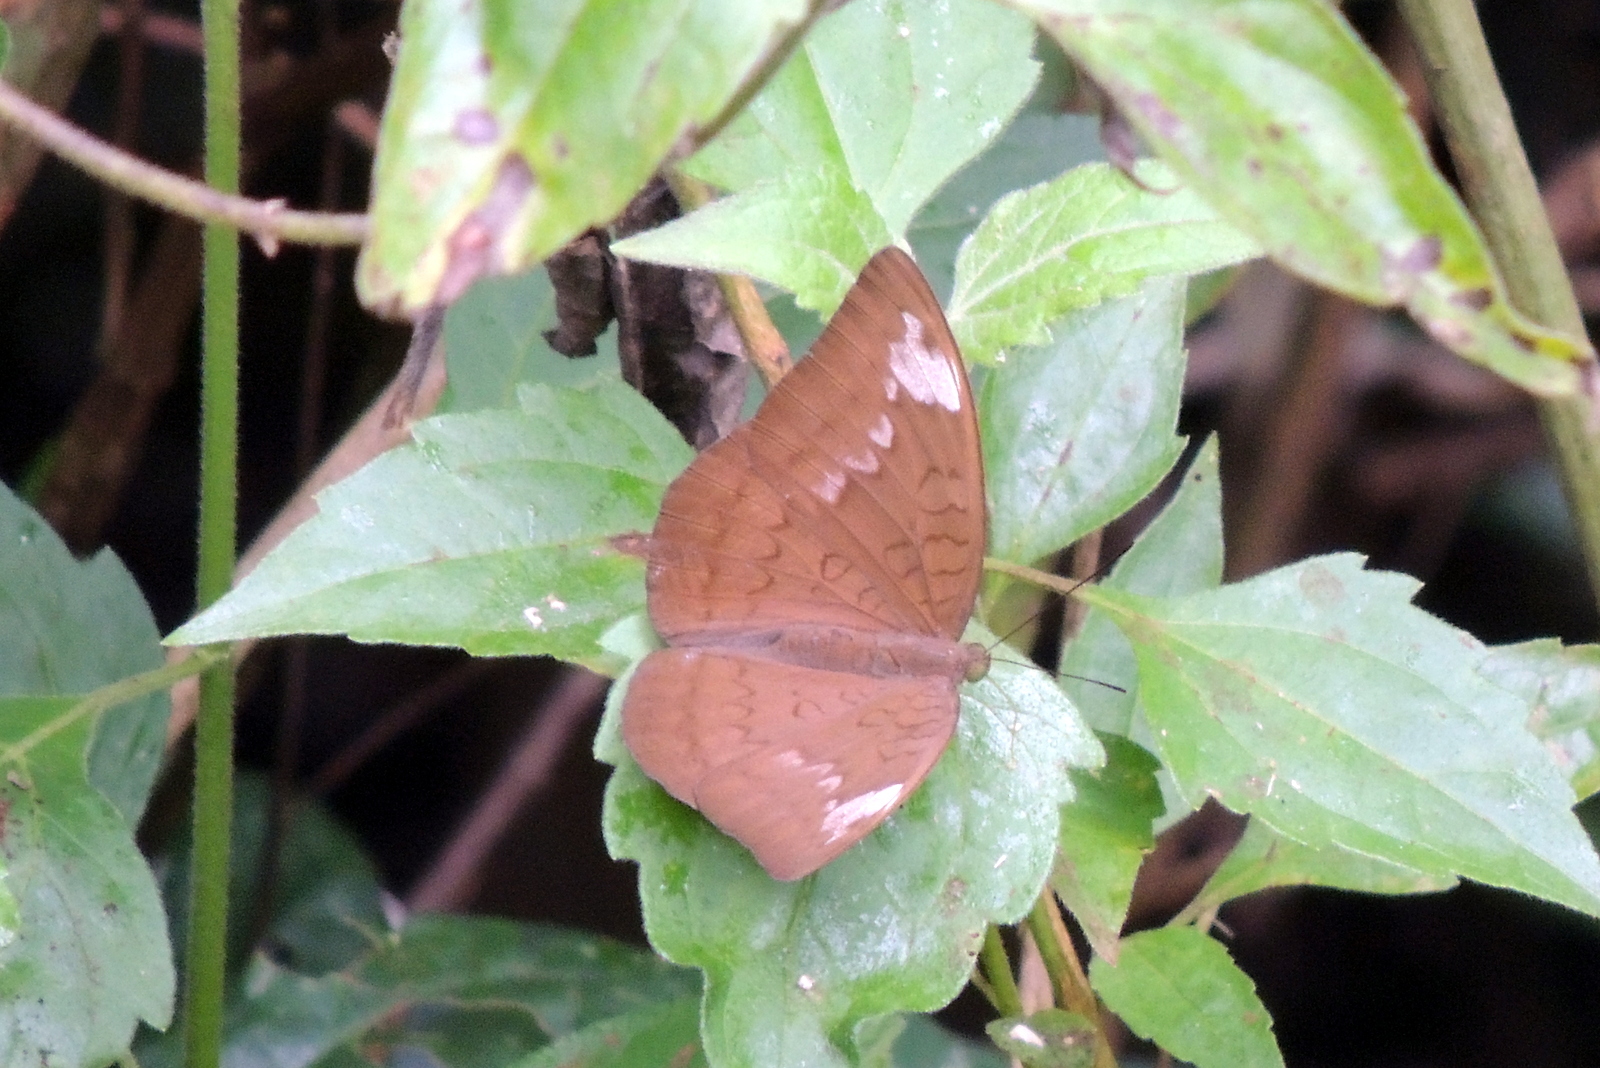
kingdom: Animalia
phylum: Arthropoda
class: Insecta
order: Lepidoptera
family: Nymphalidae
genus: Tanaecia
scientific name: Tanaecia julii
